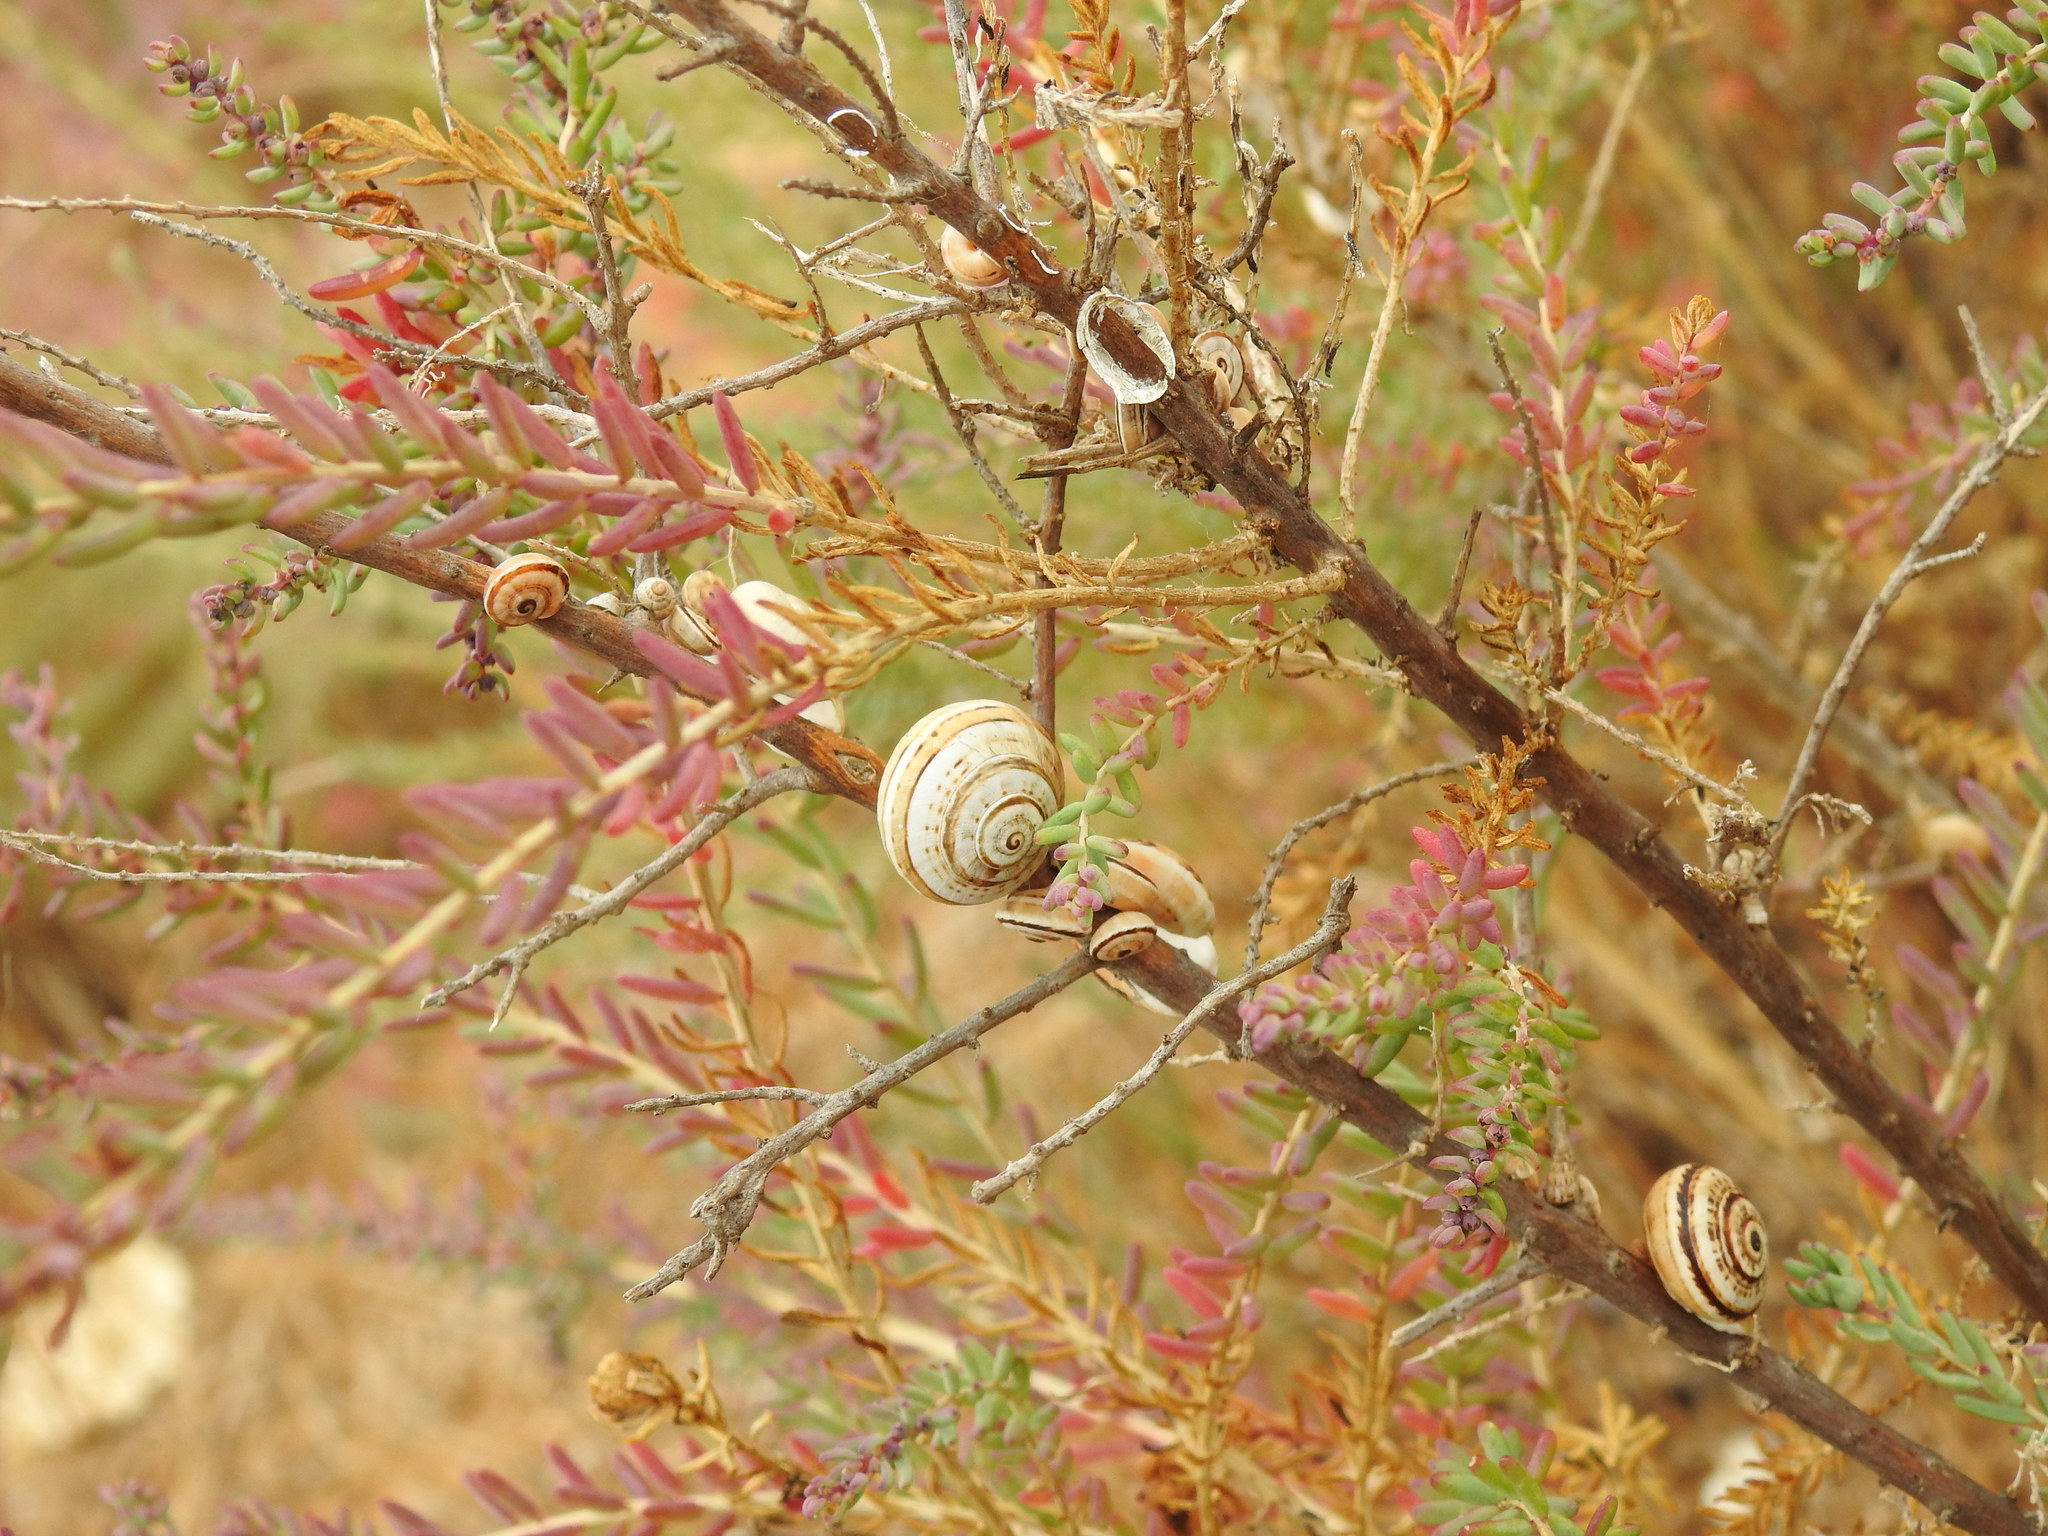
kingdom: Animalia
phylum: Mollusca
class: Gastropoda
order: Stylommatophora
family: Helicidae
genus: Theba
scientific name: Theba pisana
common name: White snail
